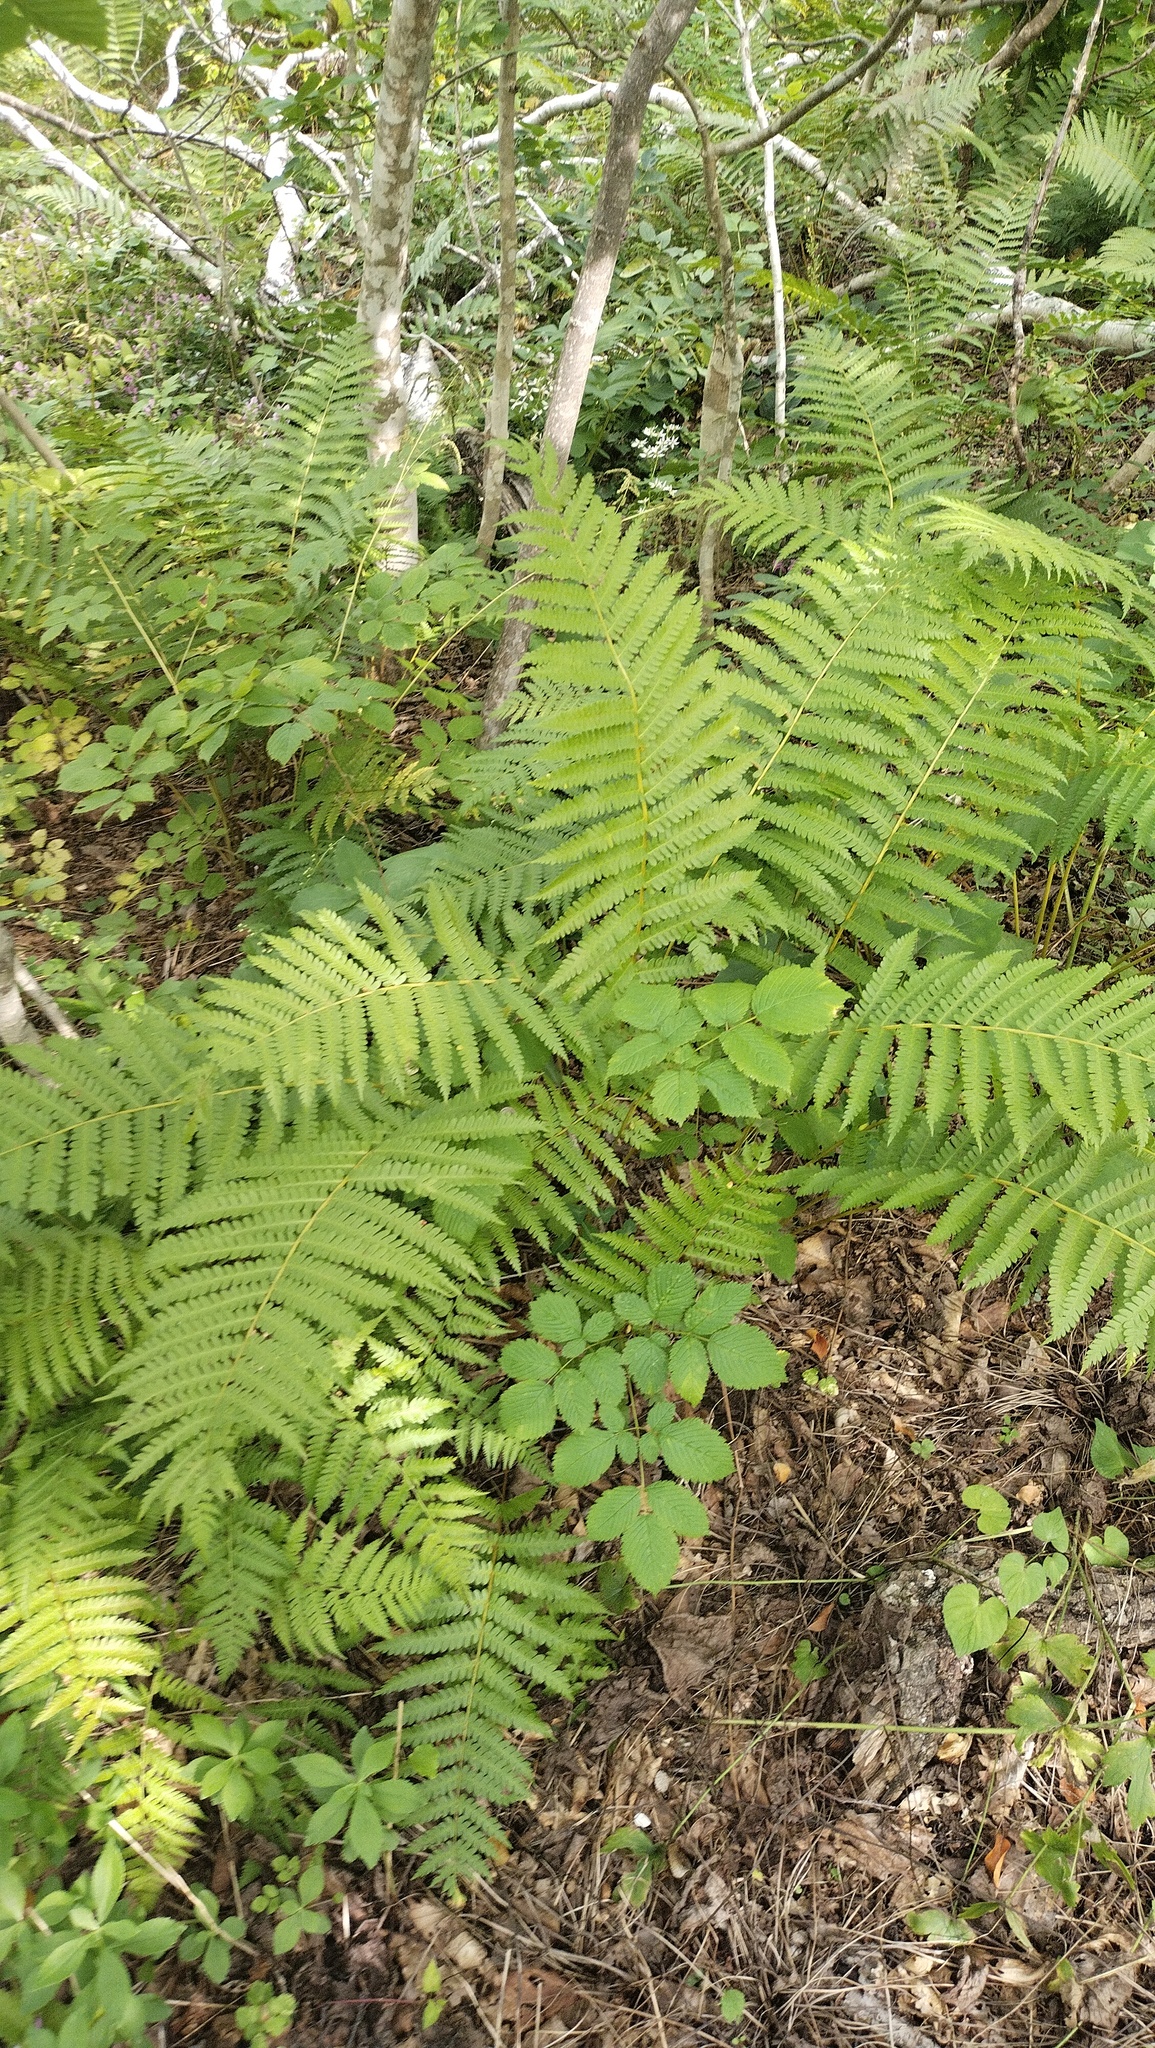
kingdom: Plantae
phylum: Tracheophyta
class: Polypodiopsida
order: Osmundales
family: Osmundaceae
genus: Osmundastrum
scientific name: Osmundastrum cinnamomeum
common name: Cinnamon fern
